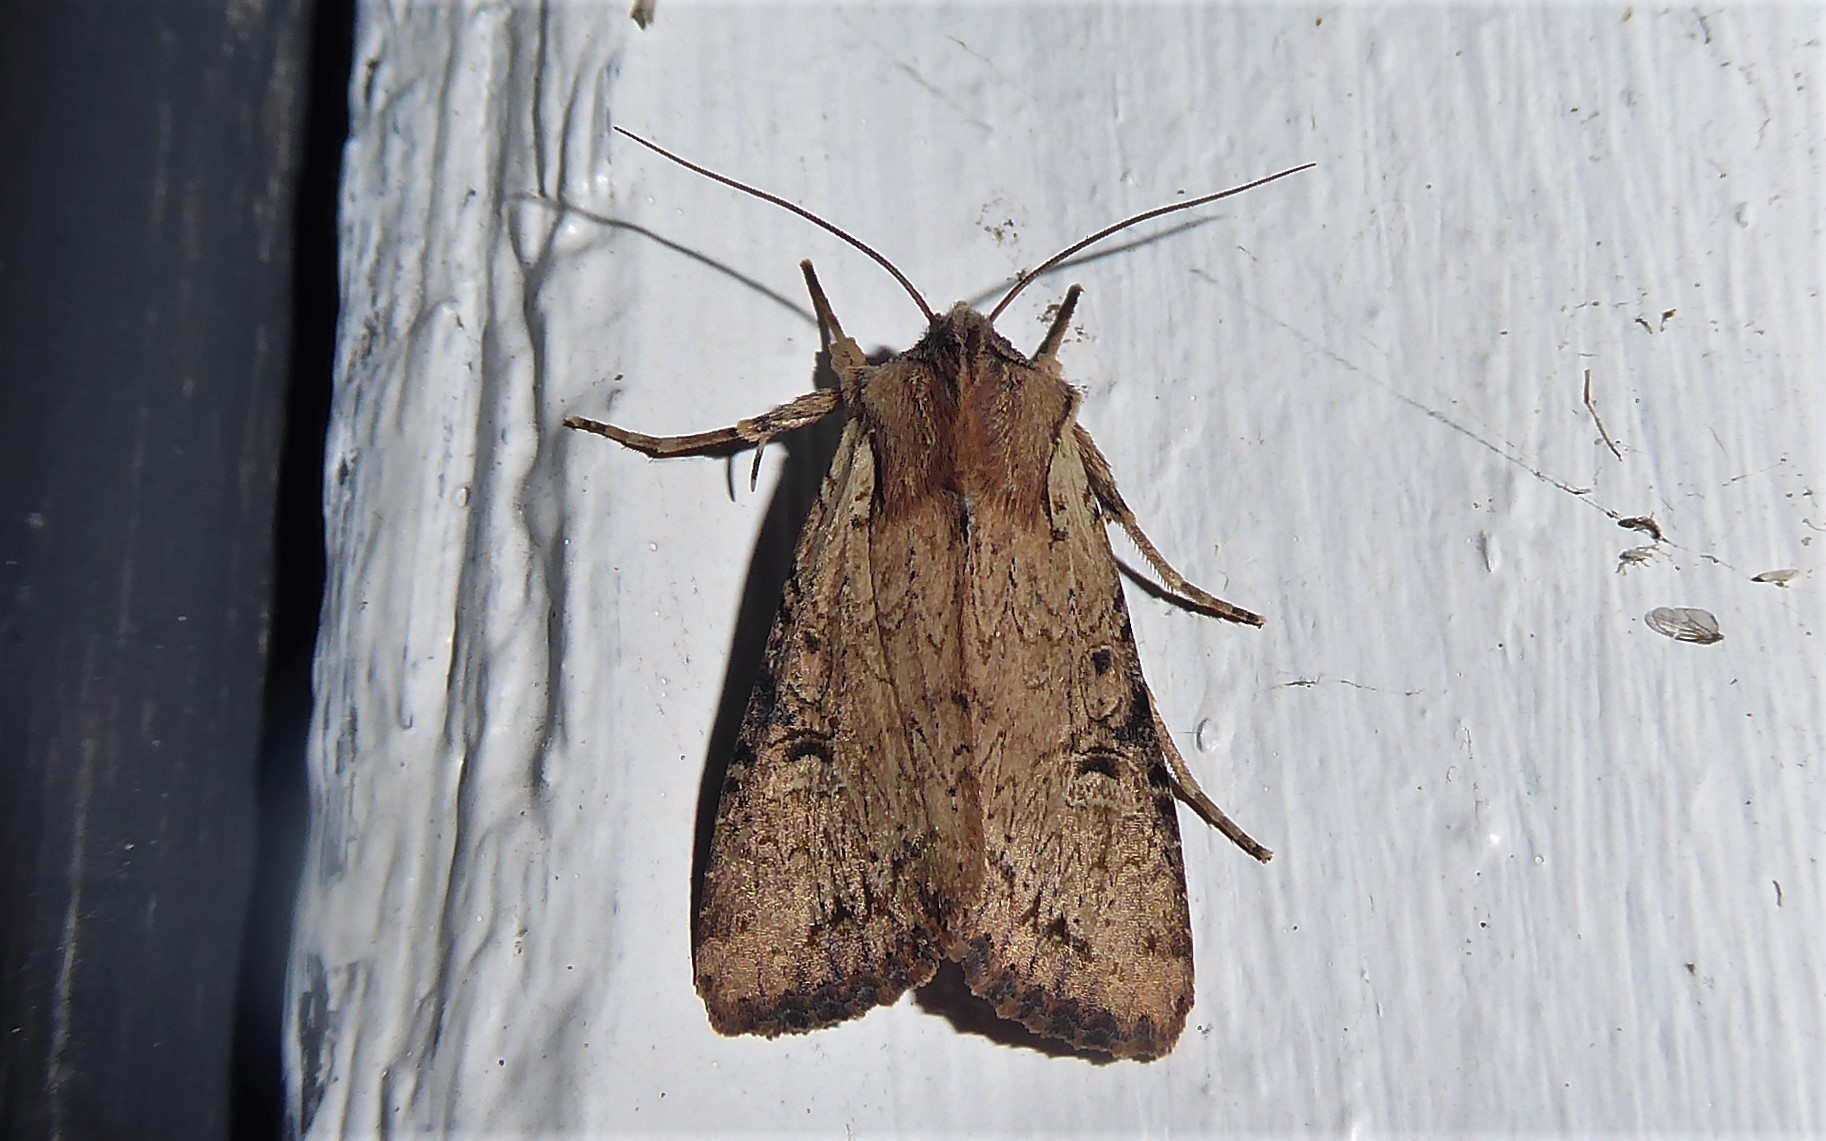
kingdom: Animalia
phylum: Arthropoda
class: Insecta
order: Lepidoptera
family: Noctuidae
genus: Ichneutica
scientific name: Ichneutica omoplaca
